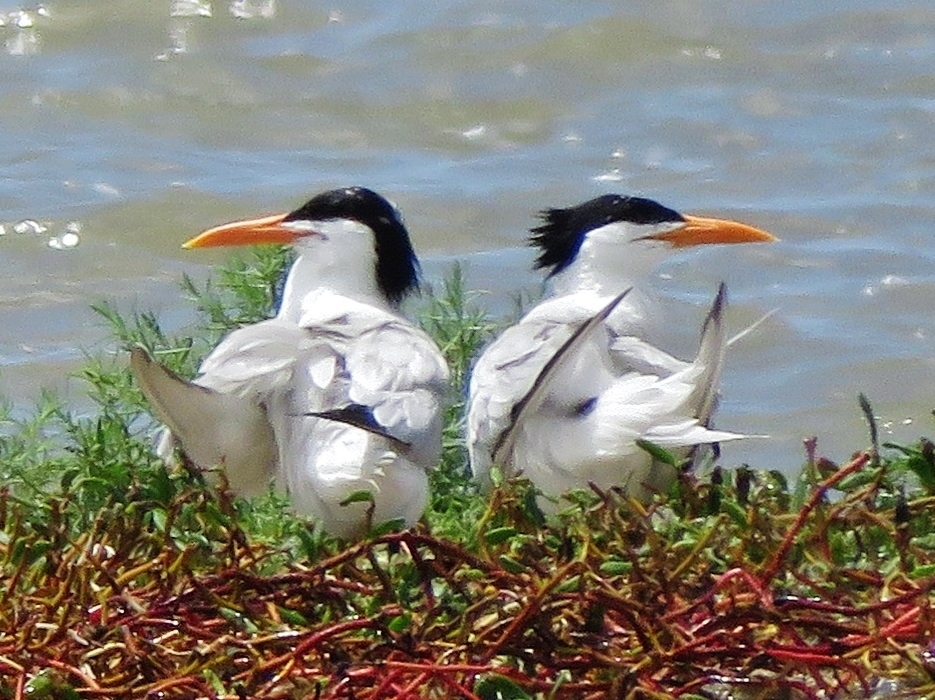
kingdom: Animalia
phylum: Chordata
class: Aves
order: Charadriiformes
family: Laridae
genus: Thalasseus
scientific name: Thalasseus maximus
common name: Royal tern
